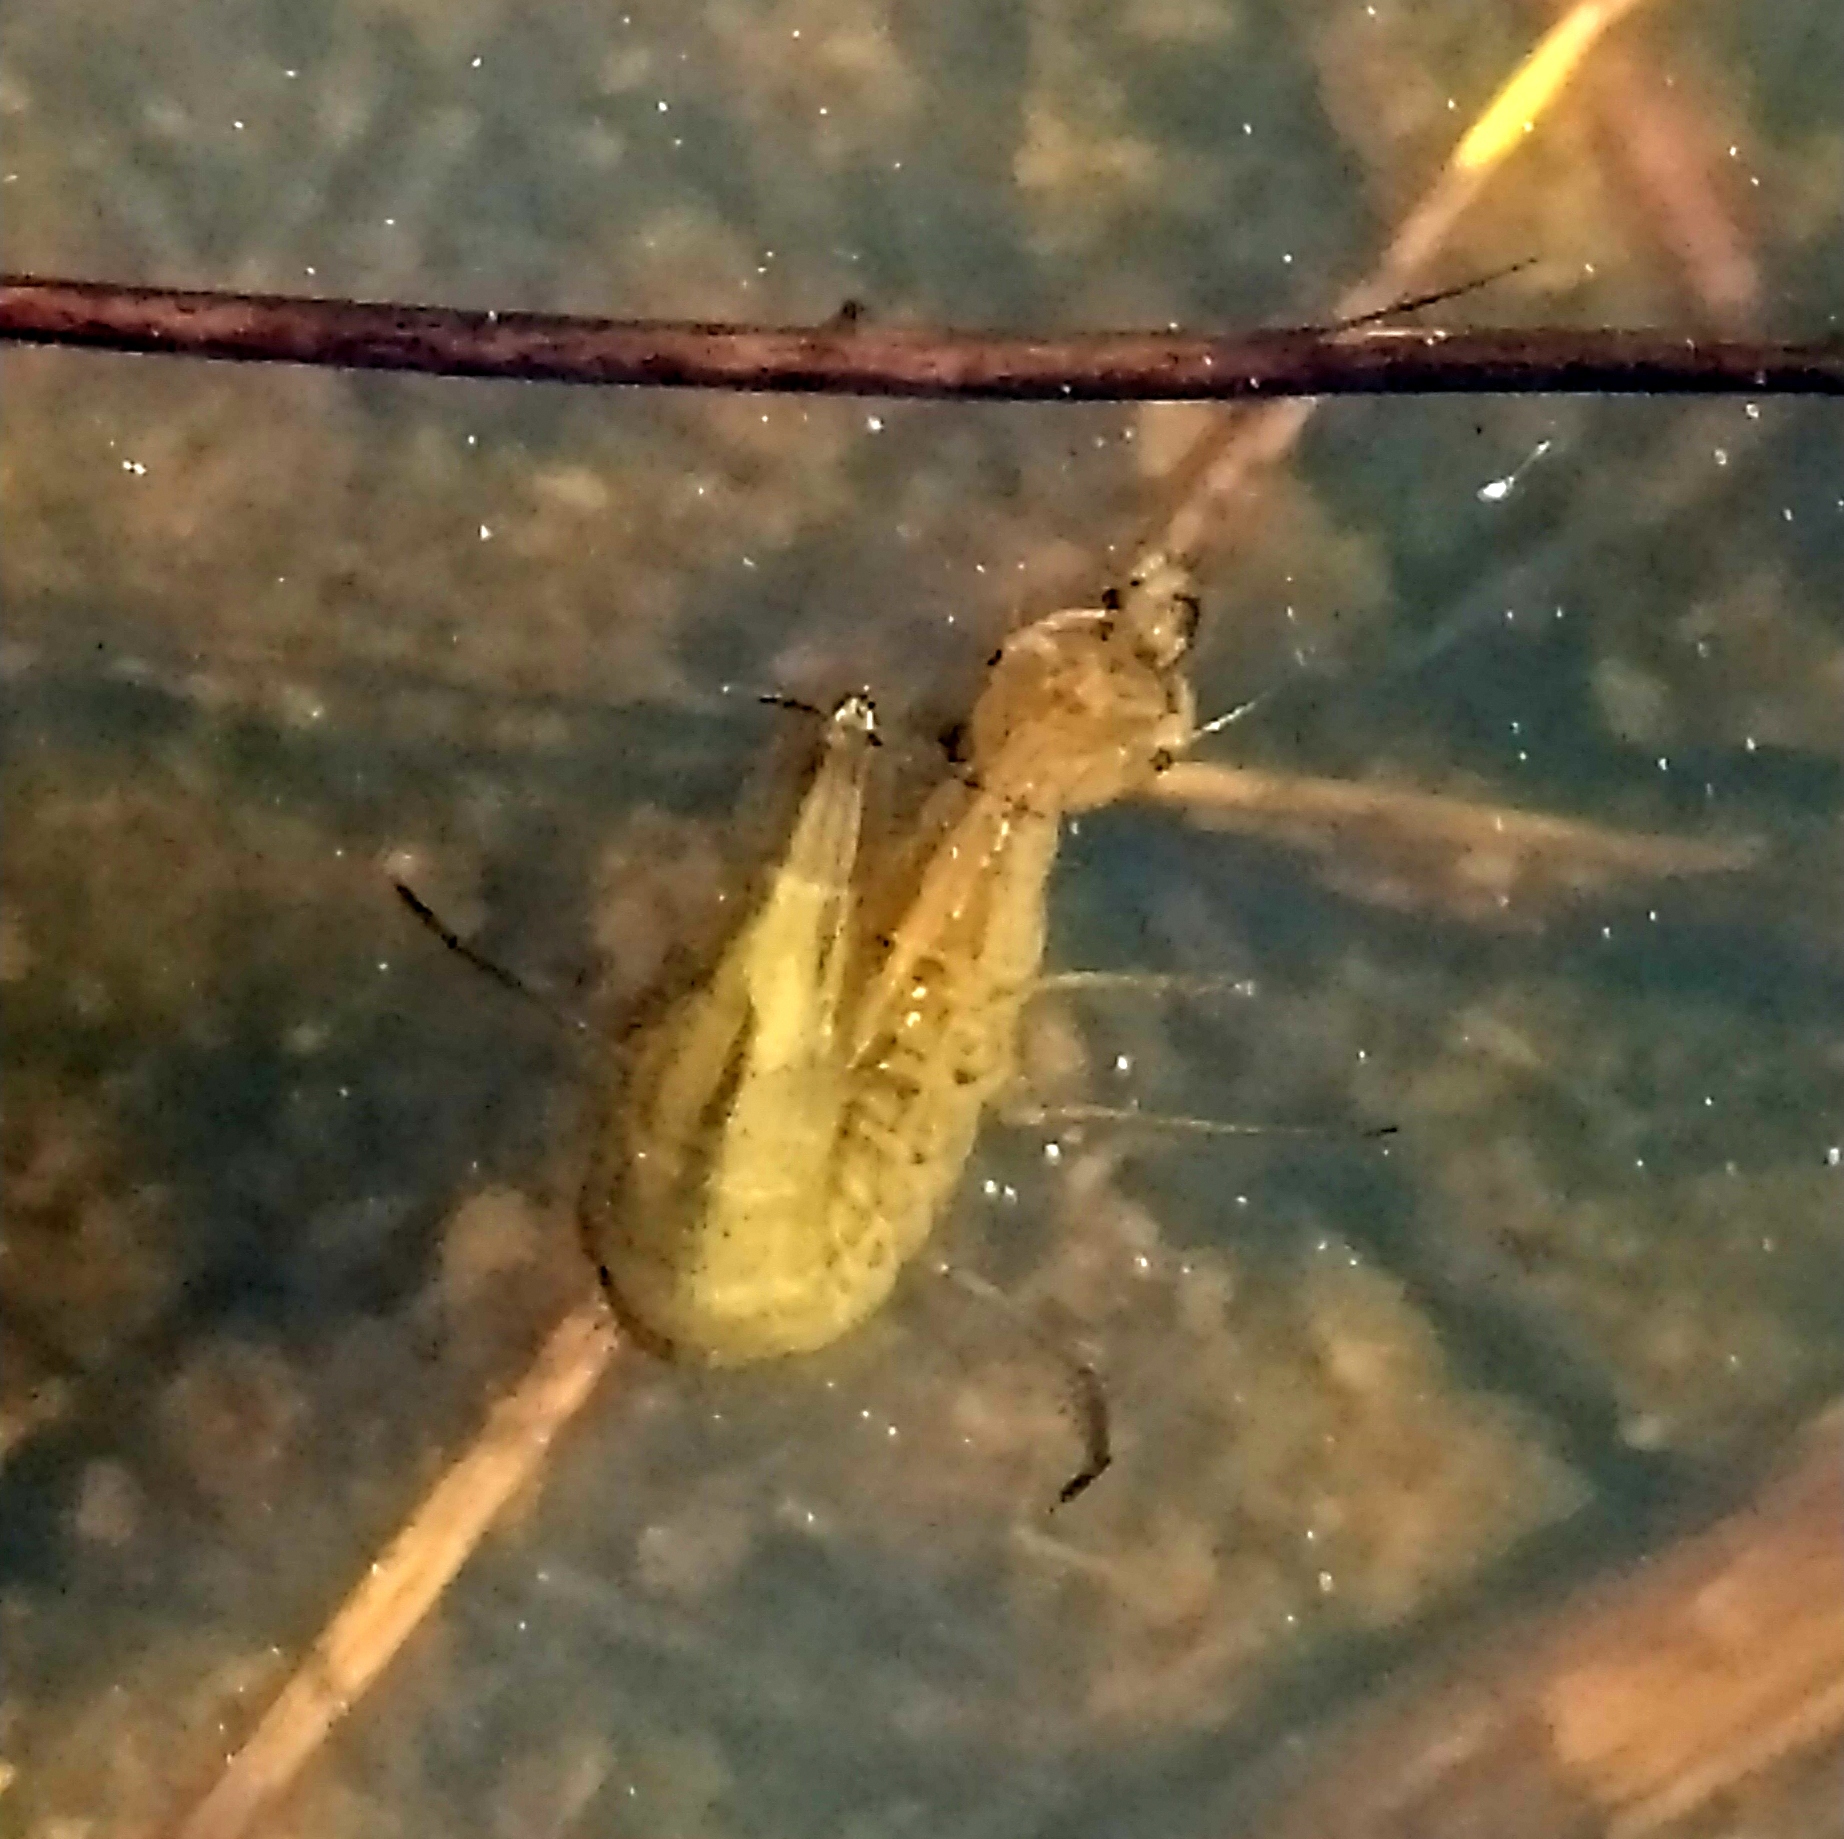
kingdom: Animalia
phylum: Arthropoda
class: Insecta
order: Coleoptera
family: Dytiscidae
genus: Dytiscus
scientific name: Dytiscus
